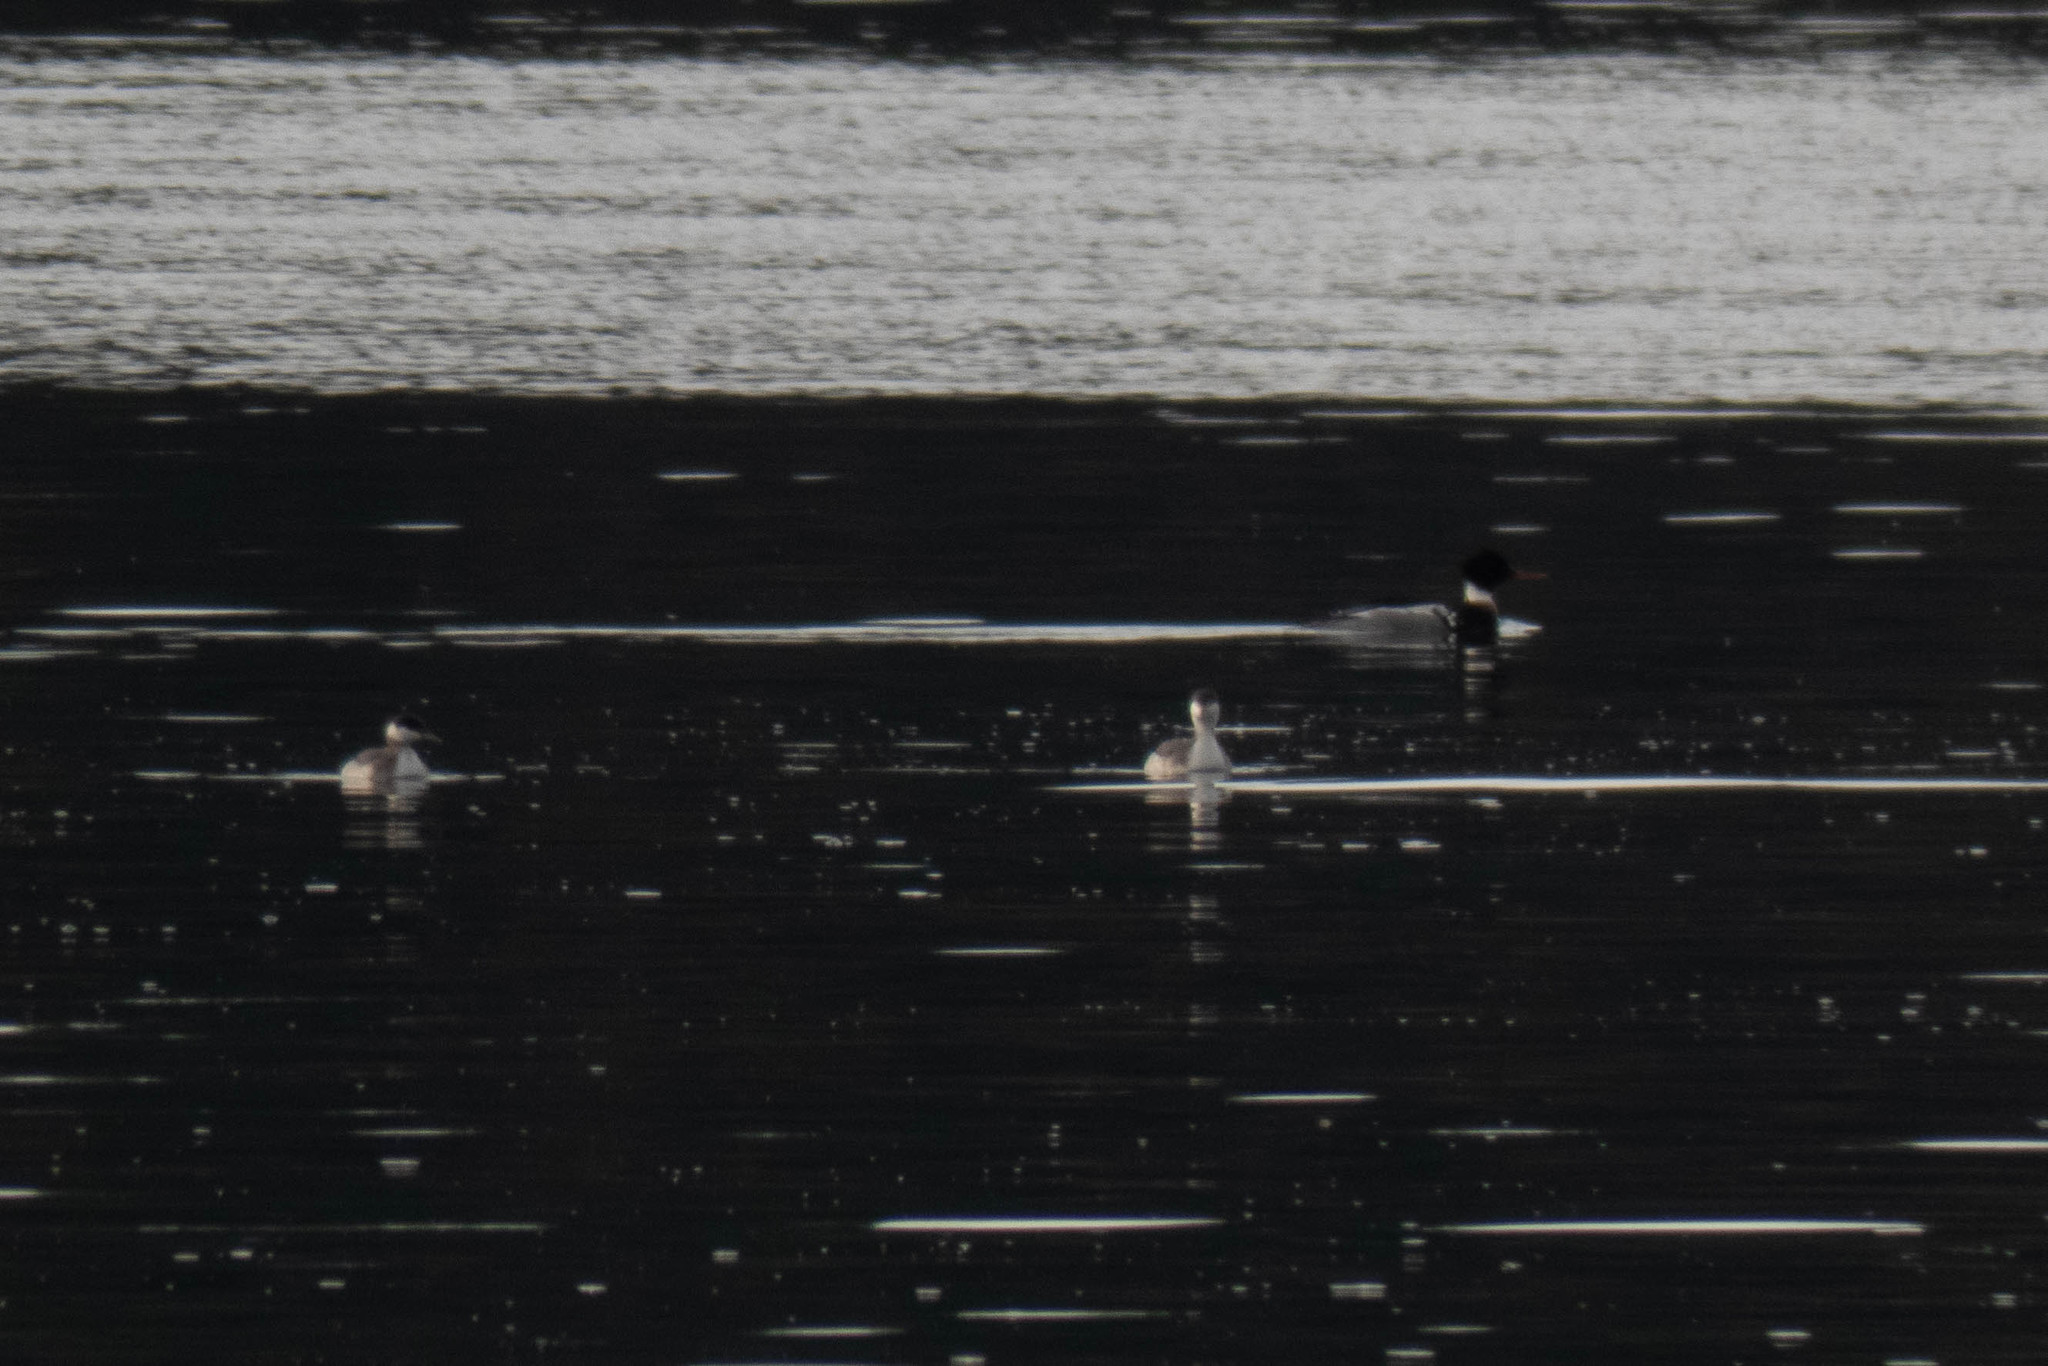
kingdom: Animalia
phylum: Chordata
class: Aves
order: Podicipediformes
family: Podicipedidae
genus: Podiceps
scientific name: Podiceps auritus
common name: Horned grebe
